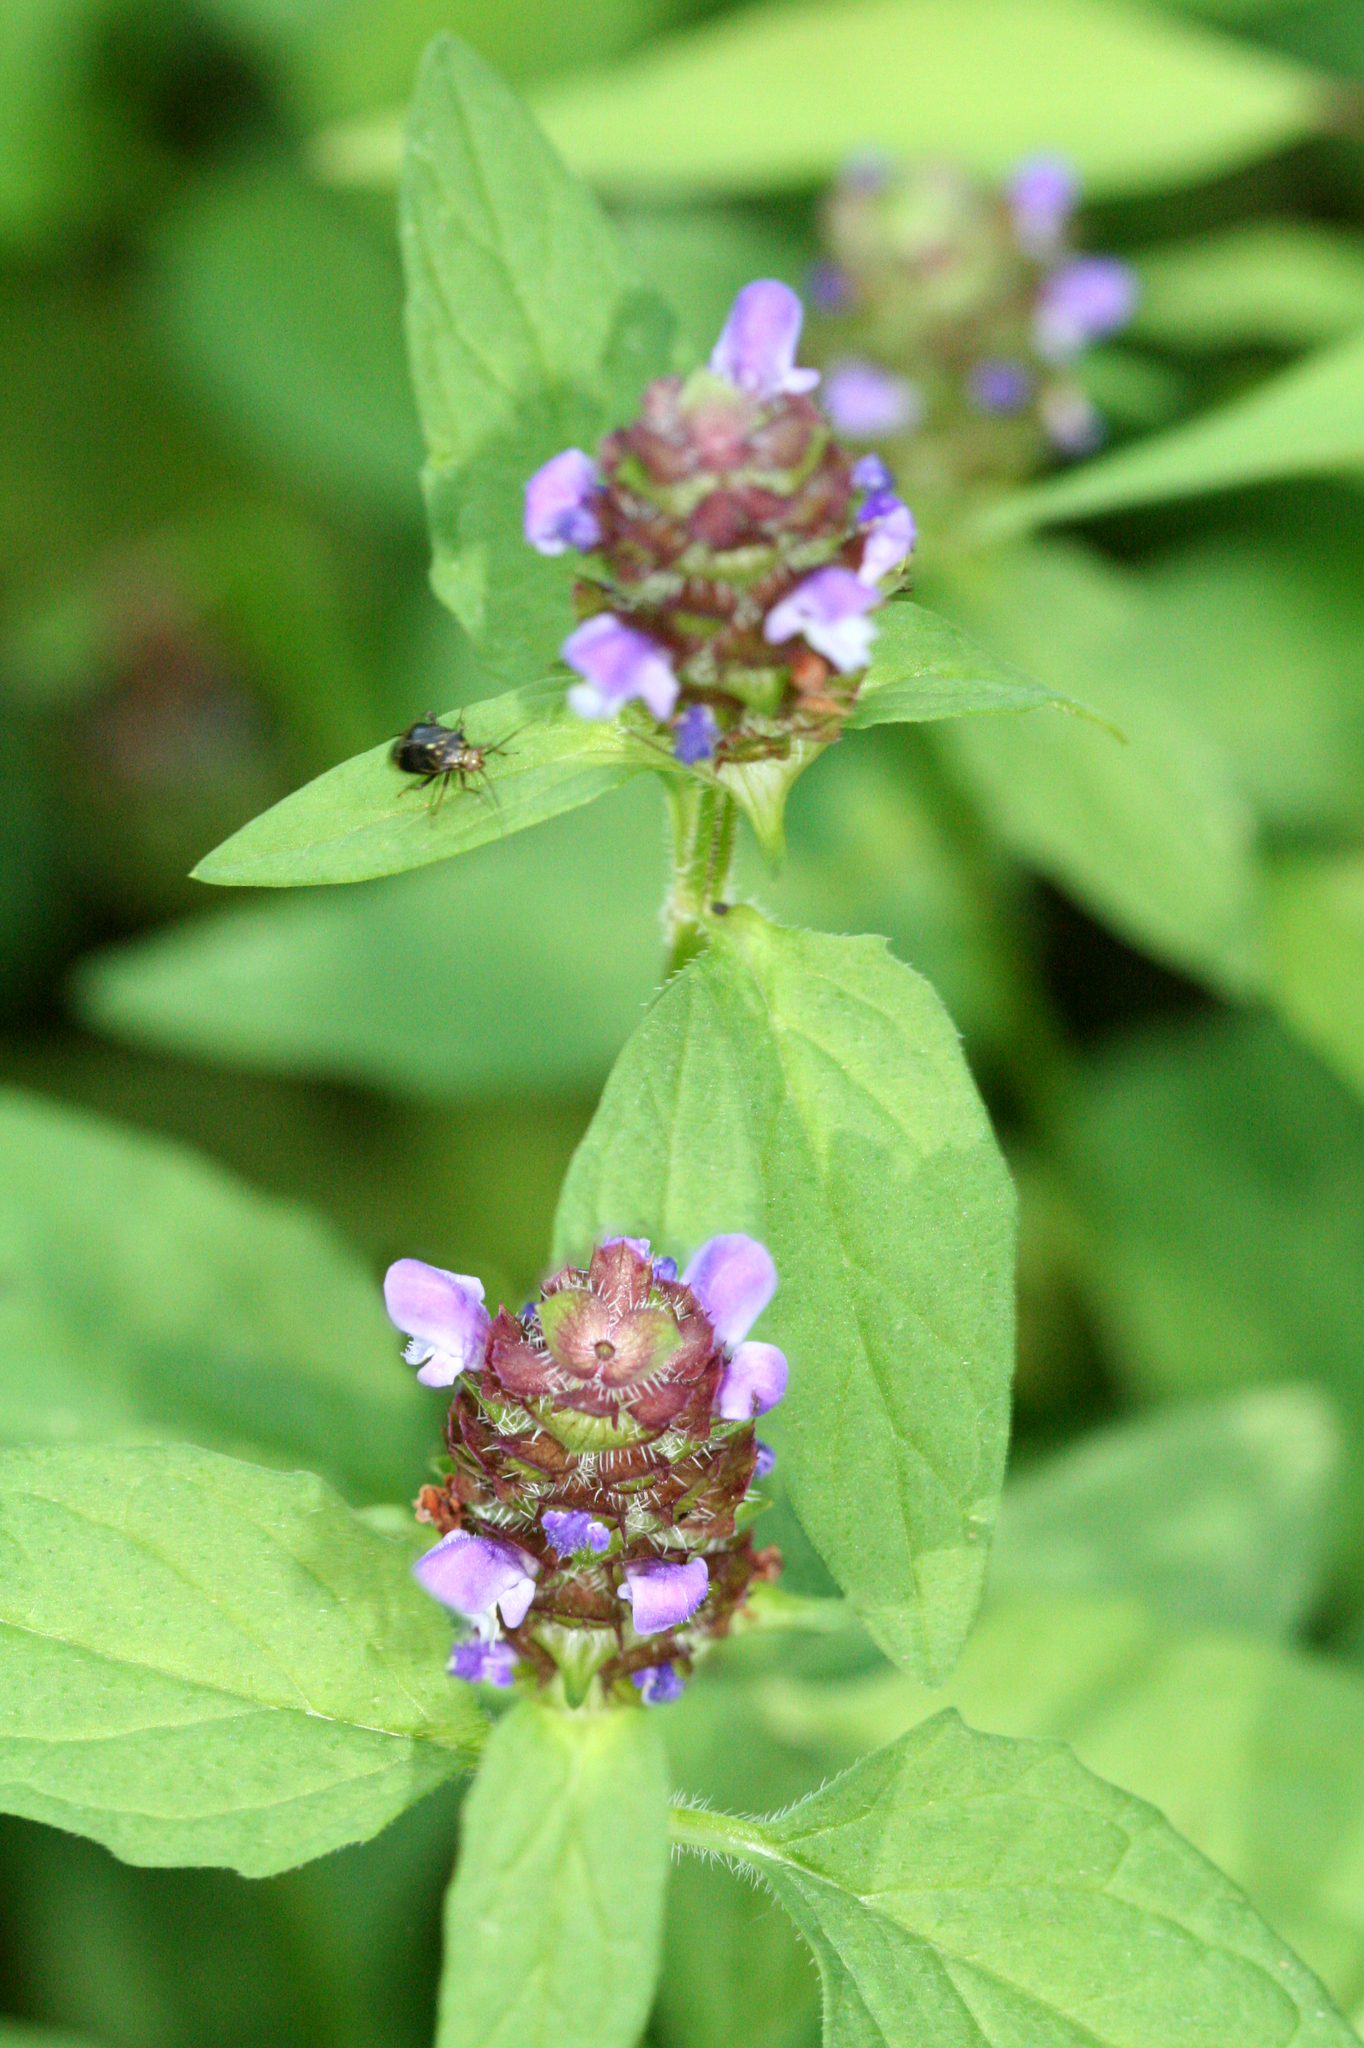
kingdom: Plantae
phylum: Tracheophyta
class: Magnoliopsida
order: Lamiales
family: Lamiaceae
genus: Prunella
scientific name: Prunella vulgaris
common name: Heal-all
